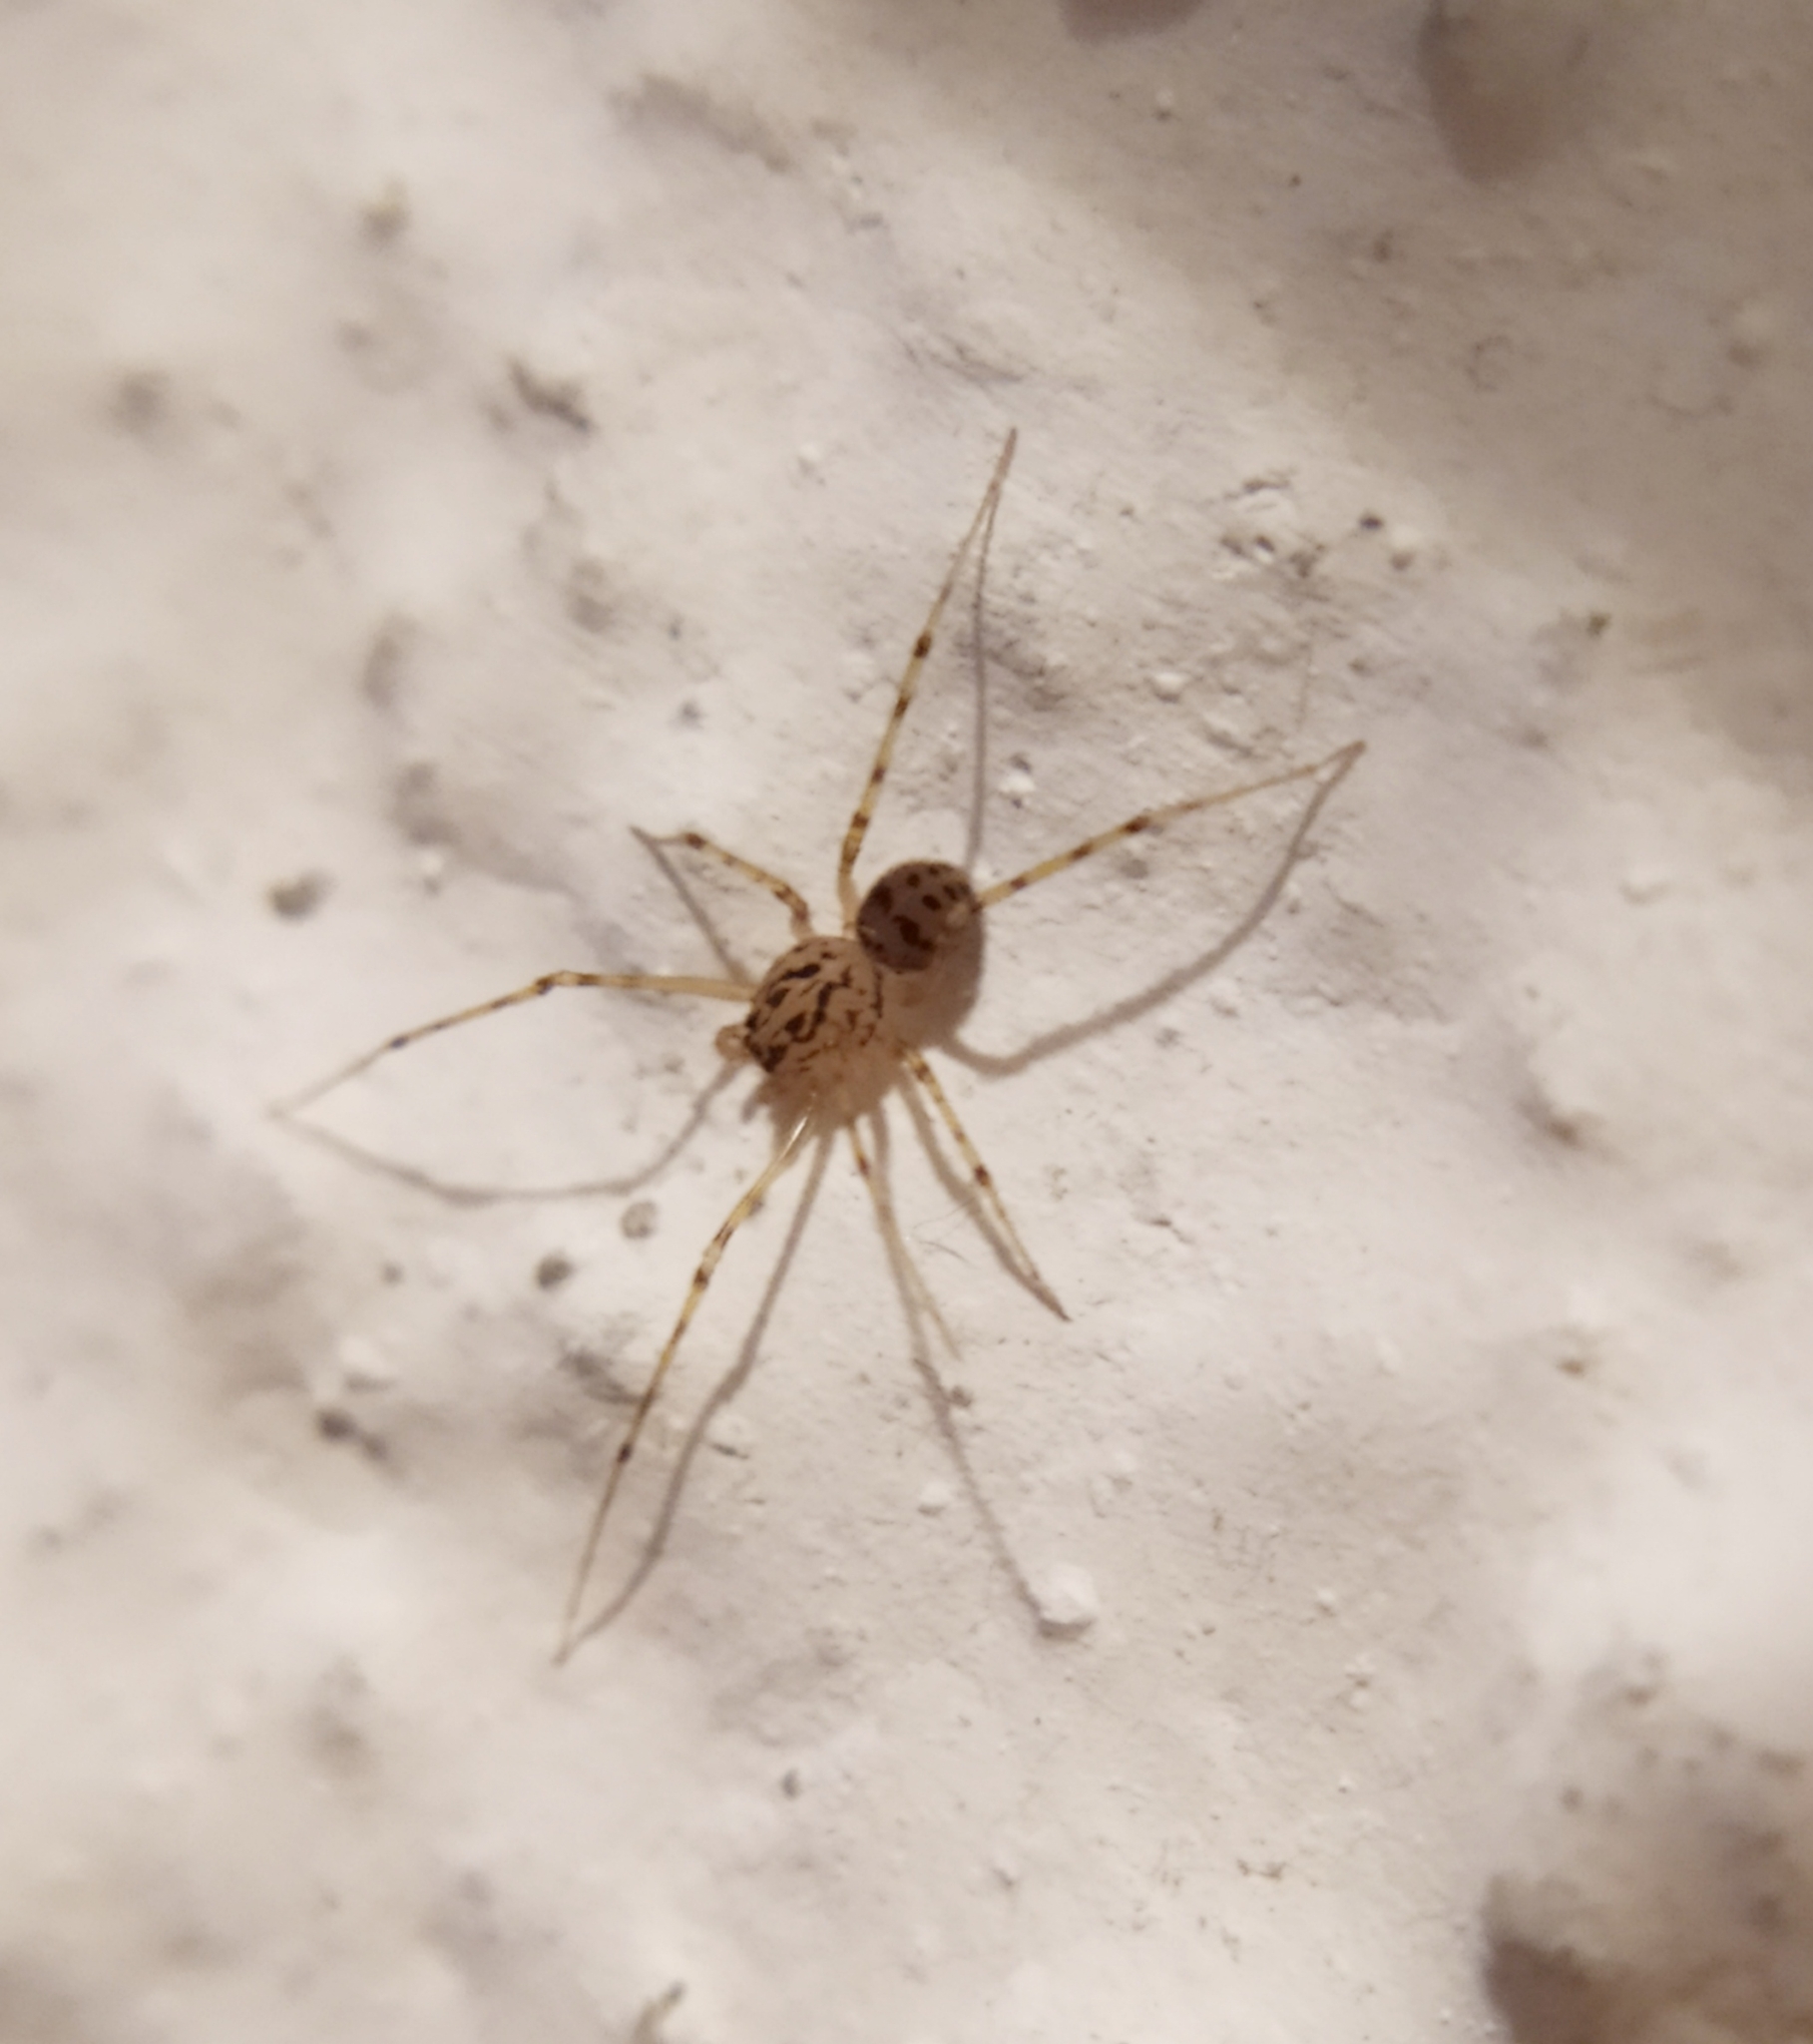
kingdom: Animalia
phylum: Arthropoda
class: Arachnida
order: Araneae
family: Scytodidae
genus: Scytodes
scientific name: Scytodes thoracica
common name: Spitting spider
